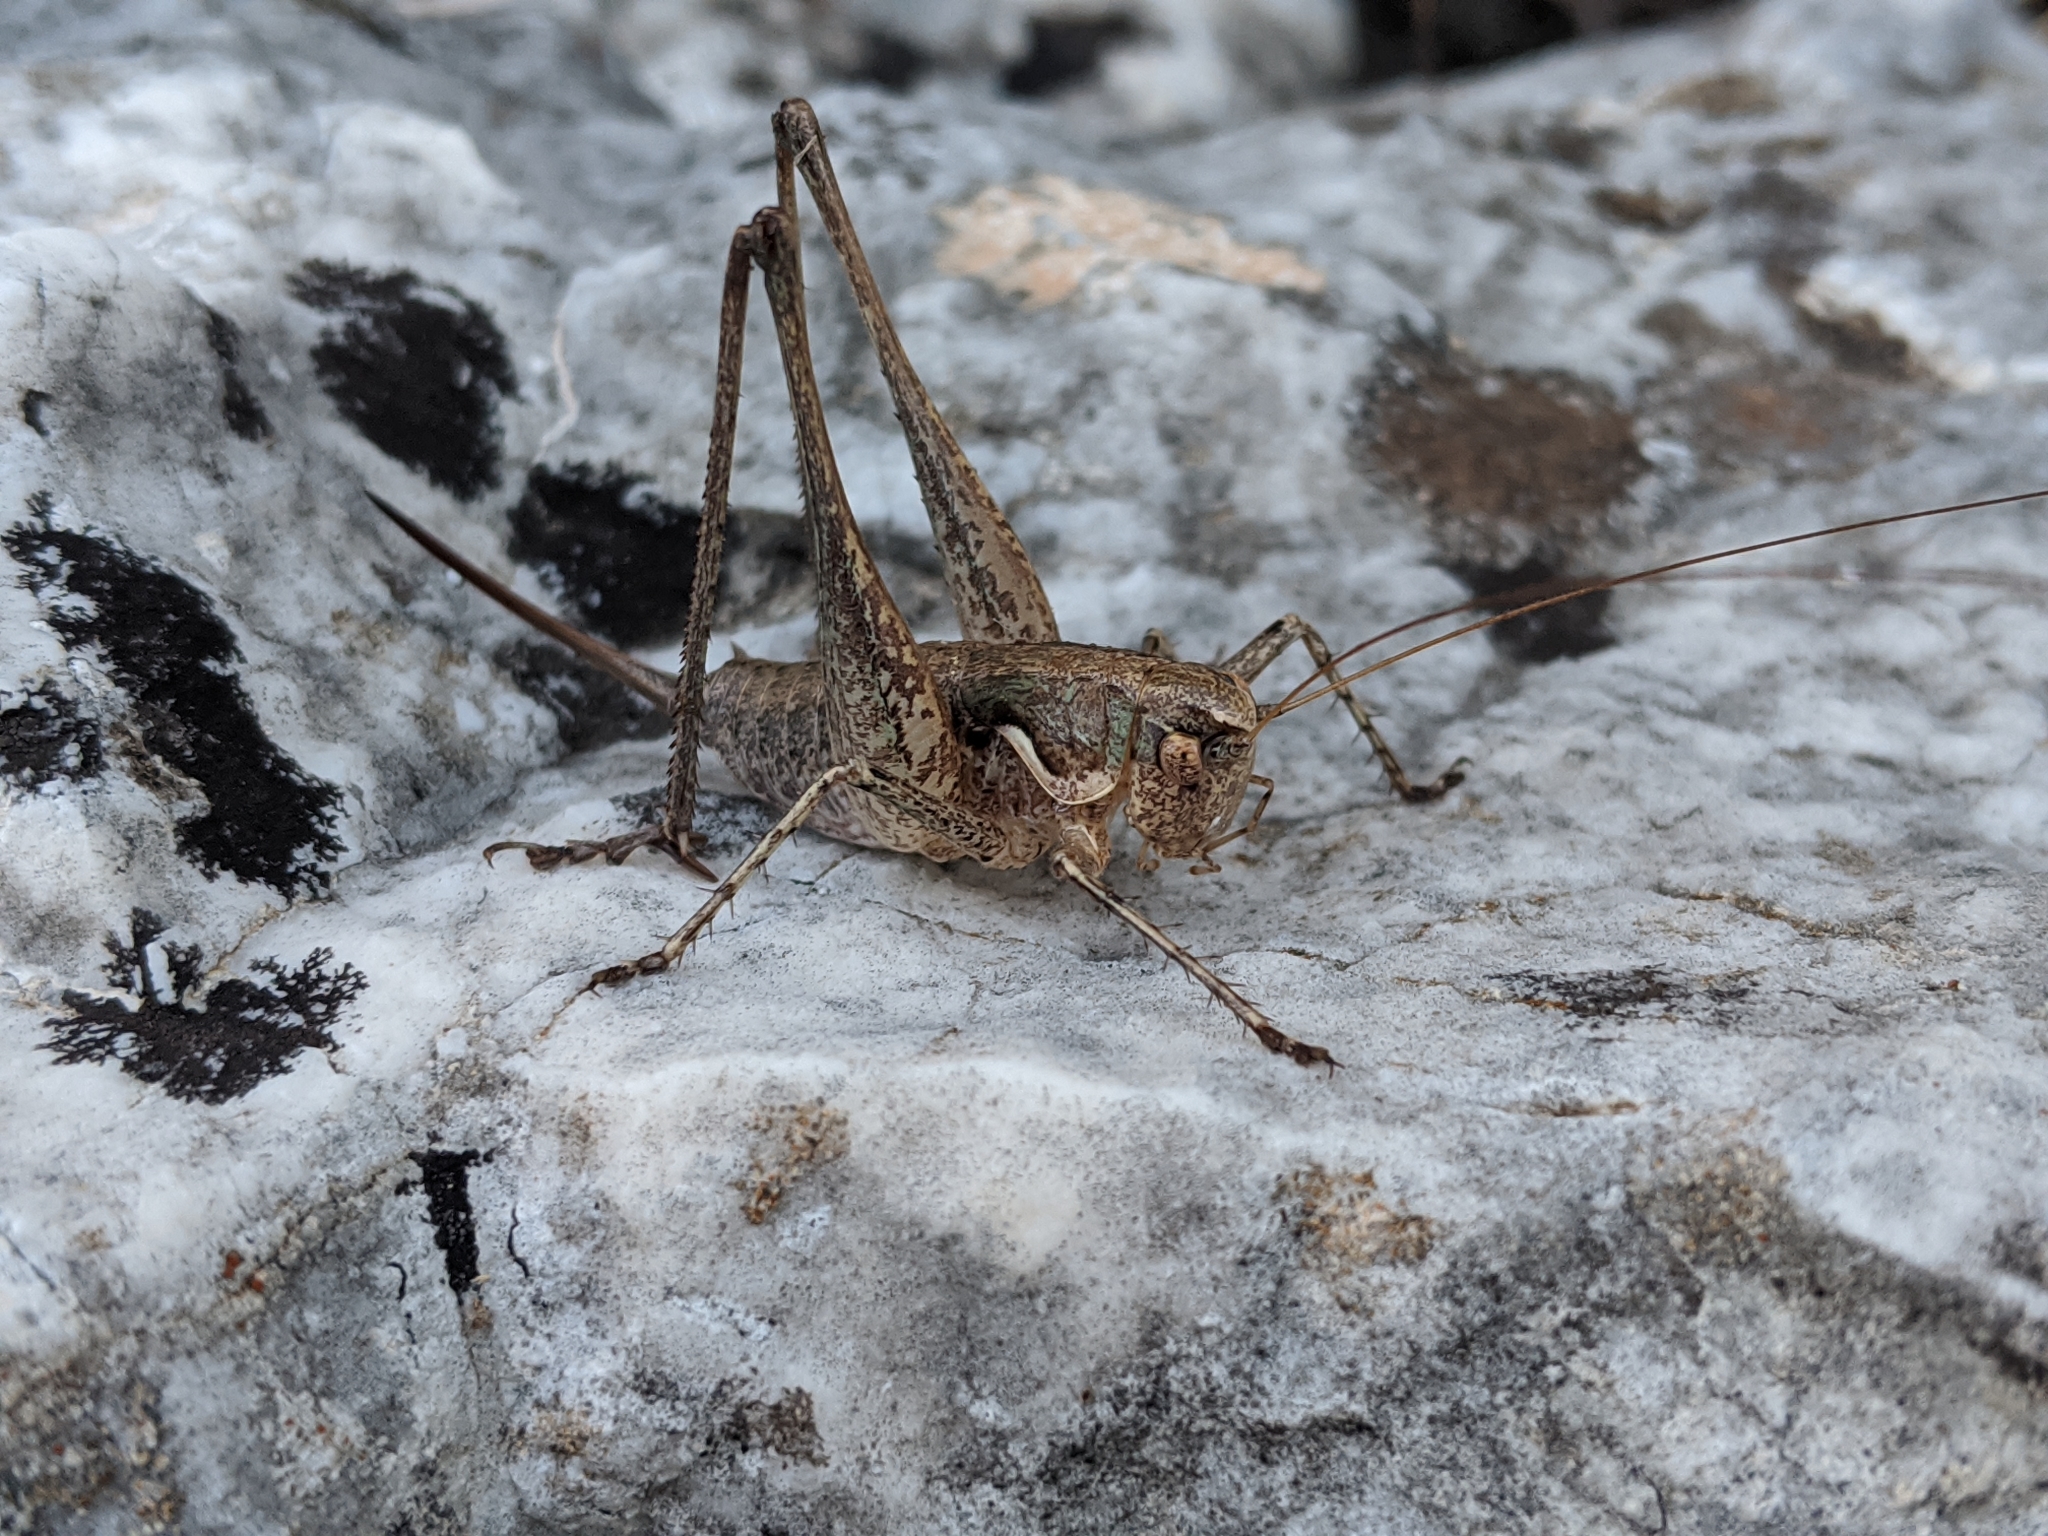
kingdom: Animalia
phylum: Arthropoda
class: Insecta
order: Orthoptera
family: Tettigoniidae
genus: Rhacocleis
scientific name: Rhacocleis germanica
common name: Mediterranean bush-cricket
